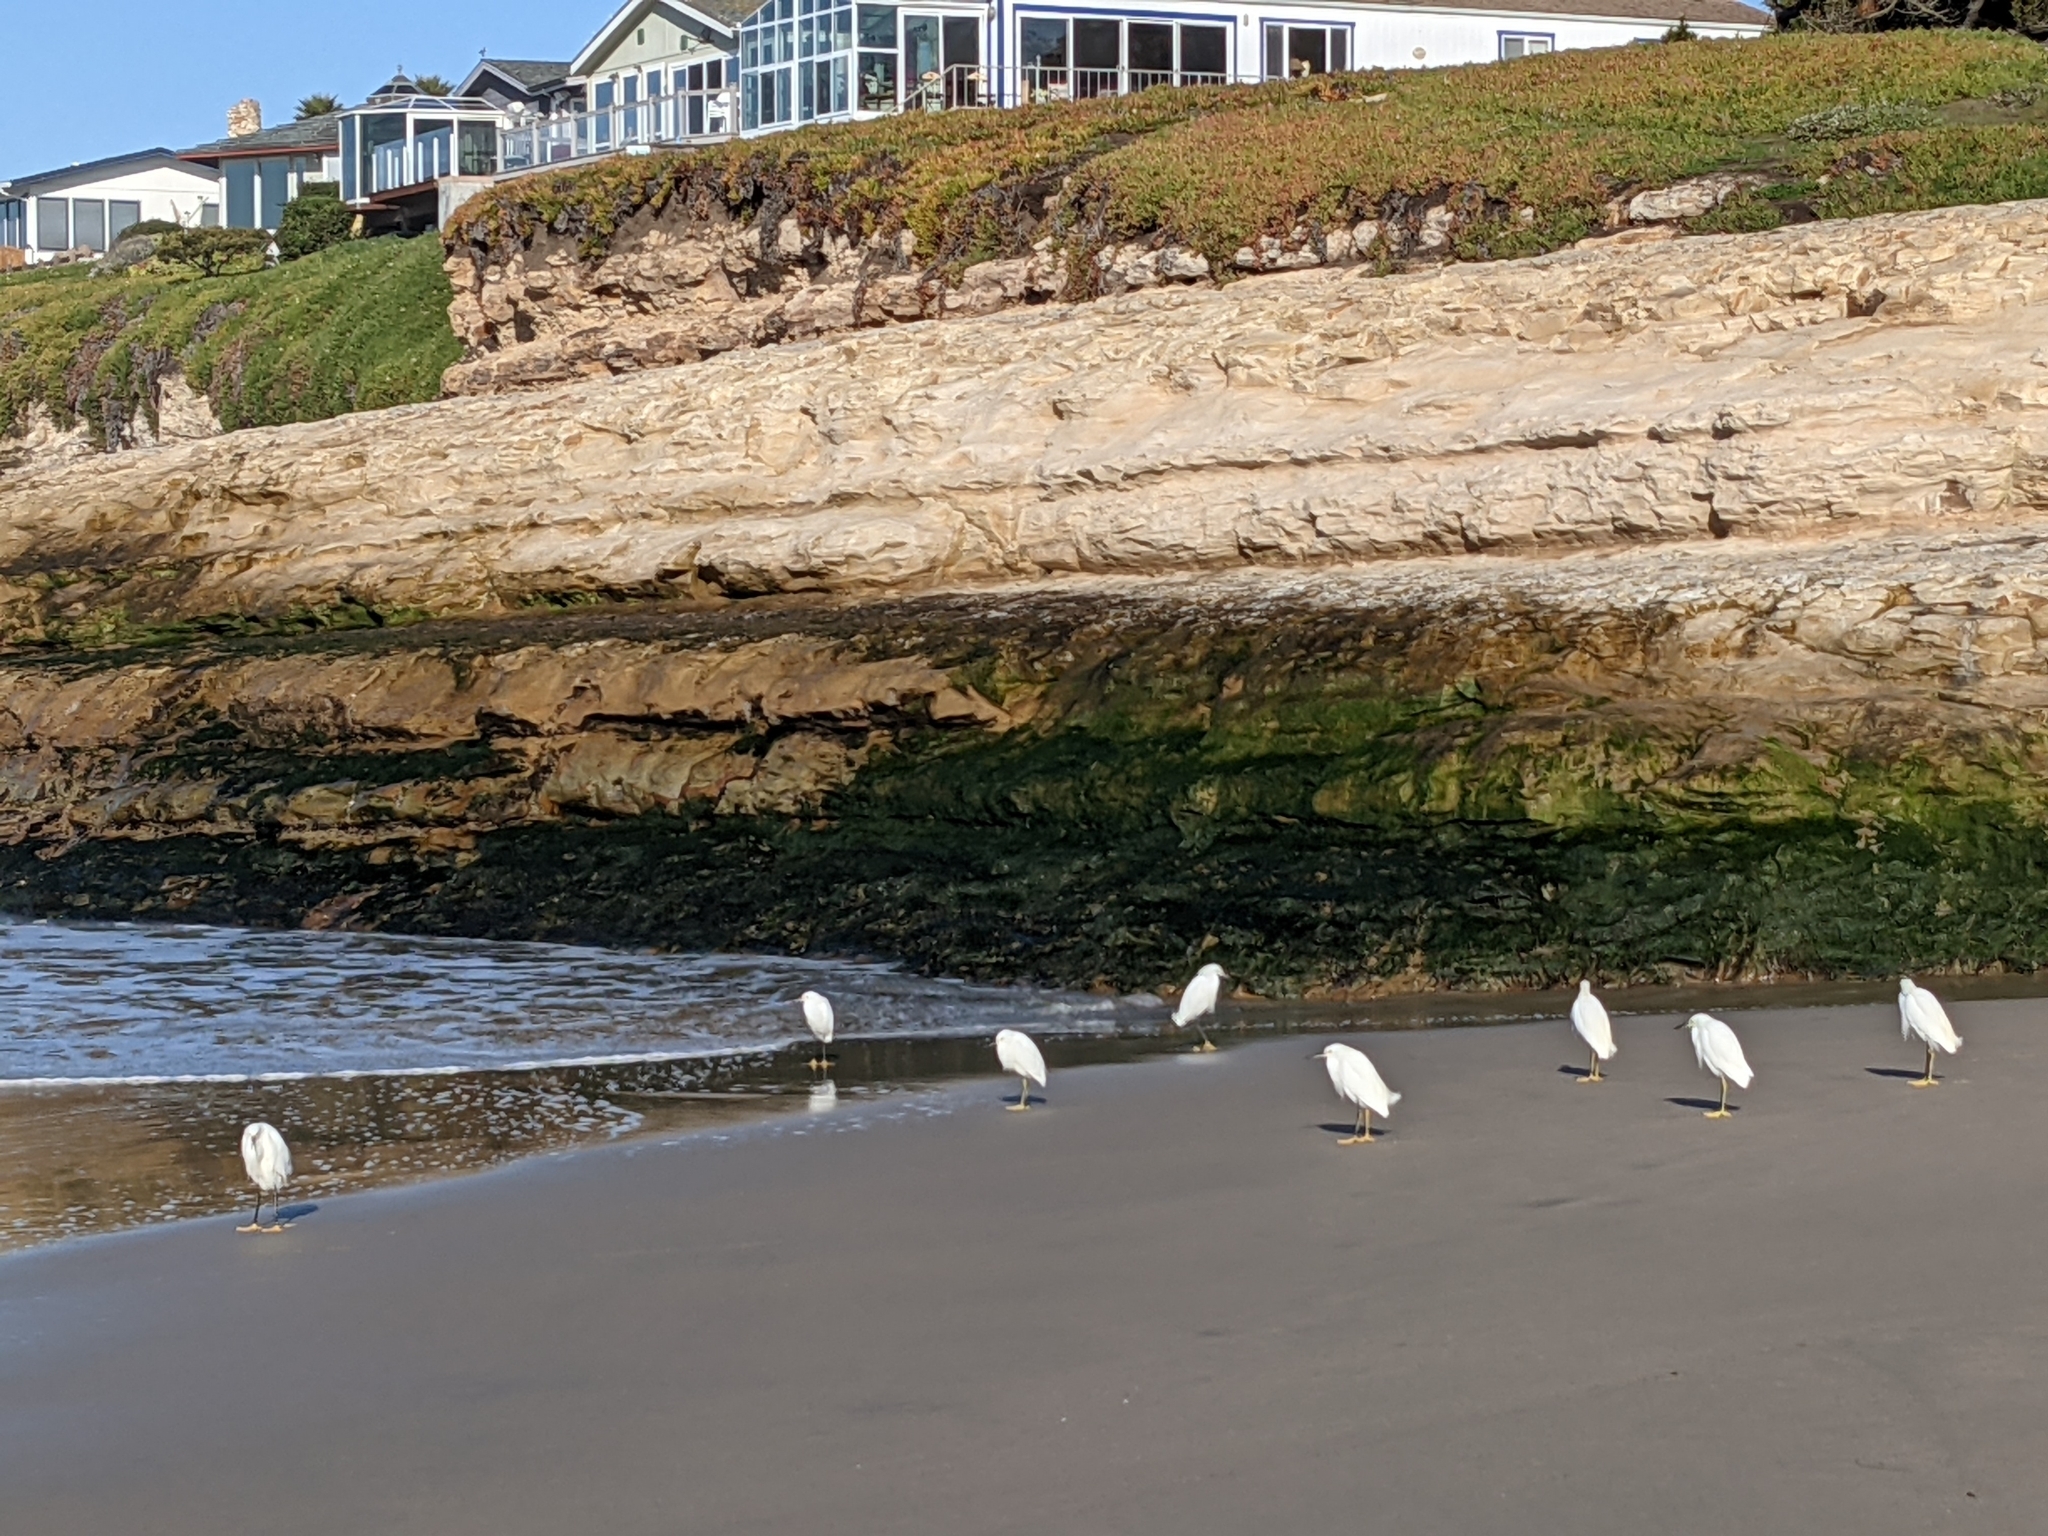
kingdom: Animalia
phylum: Chordata
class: Aves
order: Pelecaniformes
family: Ardeidae
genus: Egretta
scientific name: Egretta thula
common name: Snowy egret
